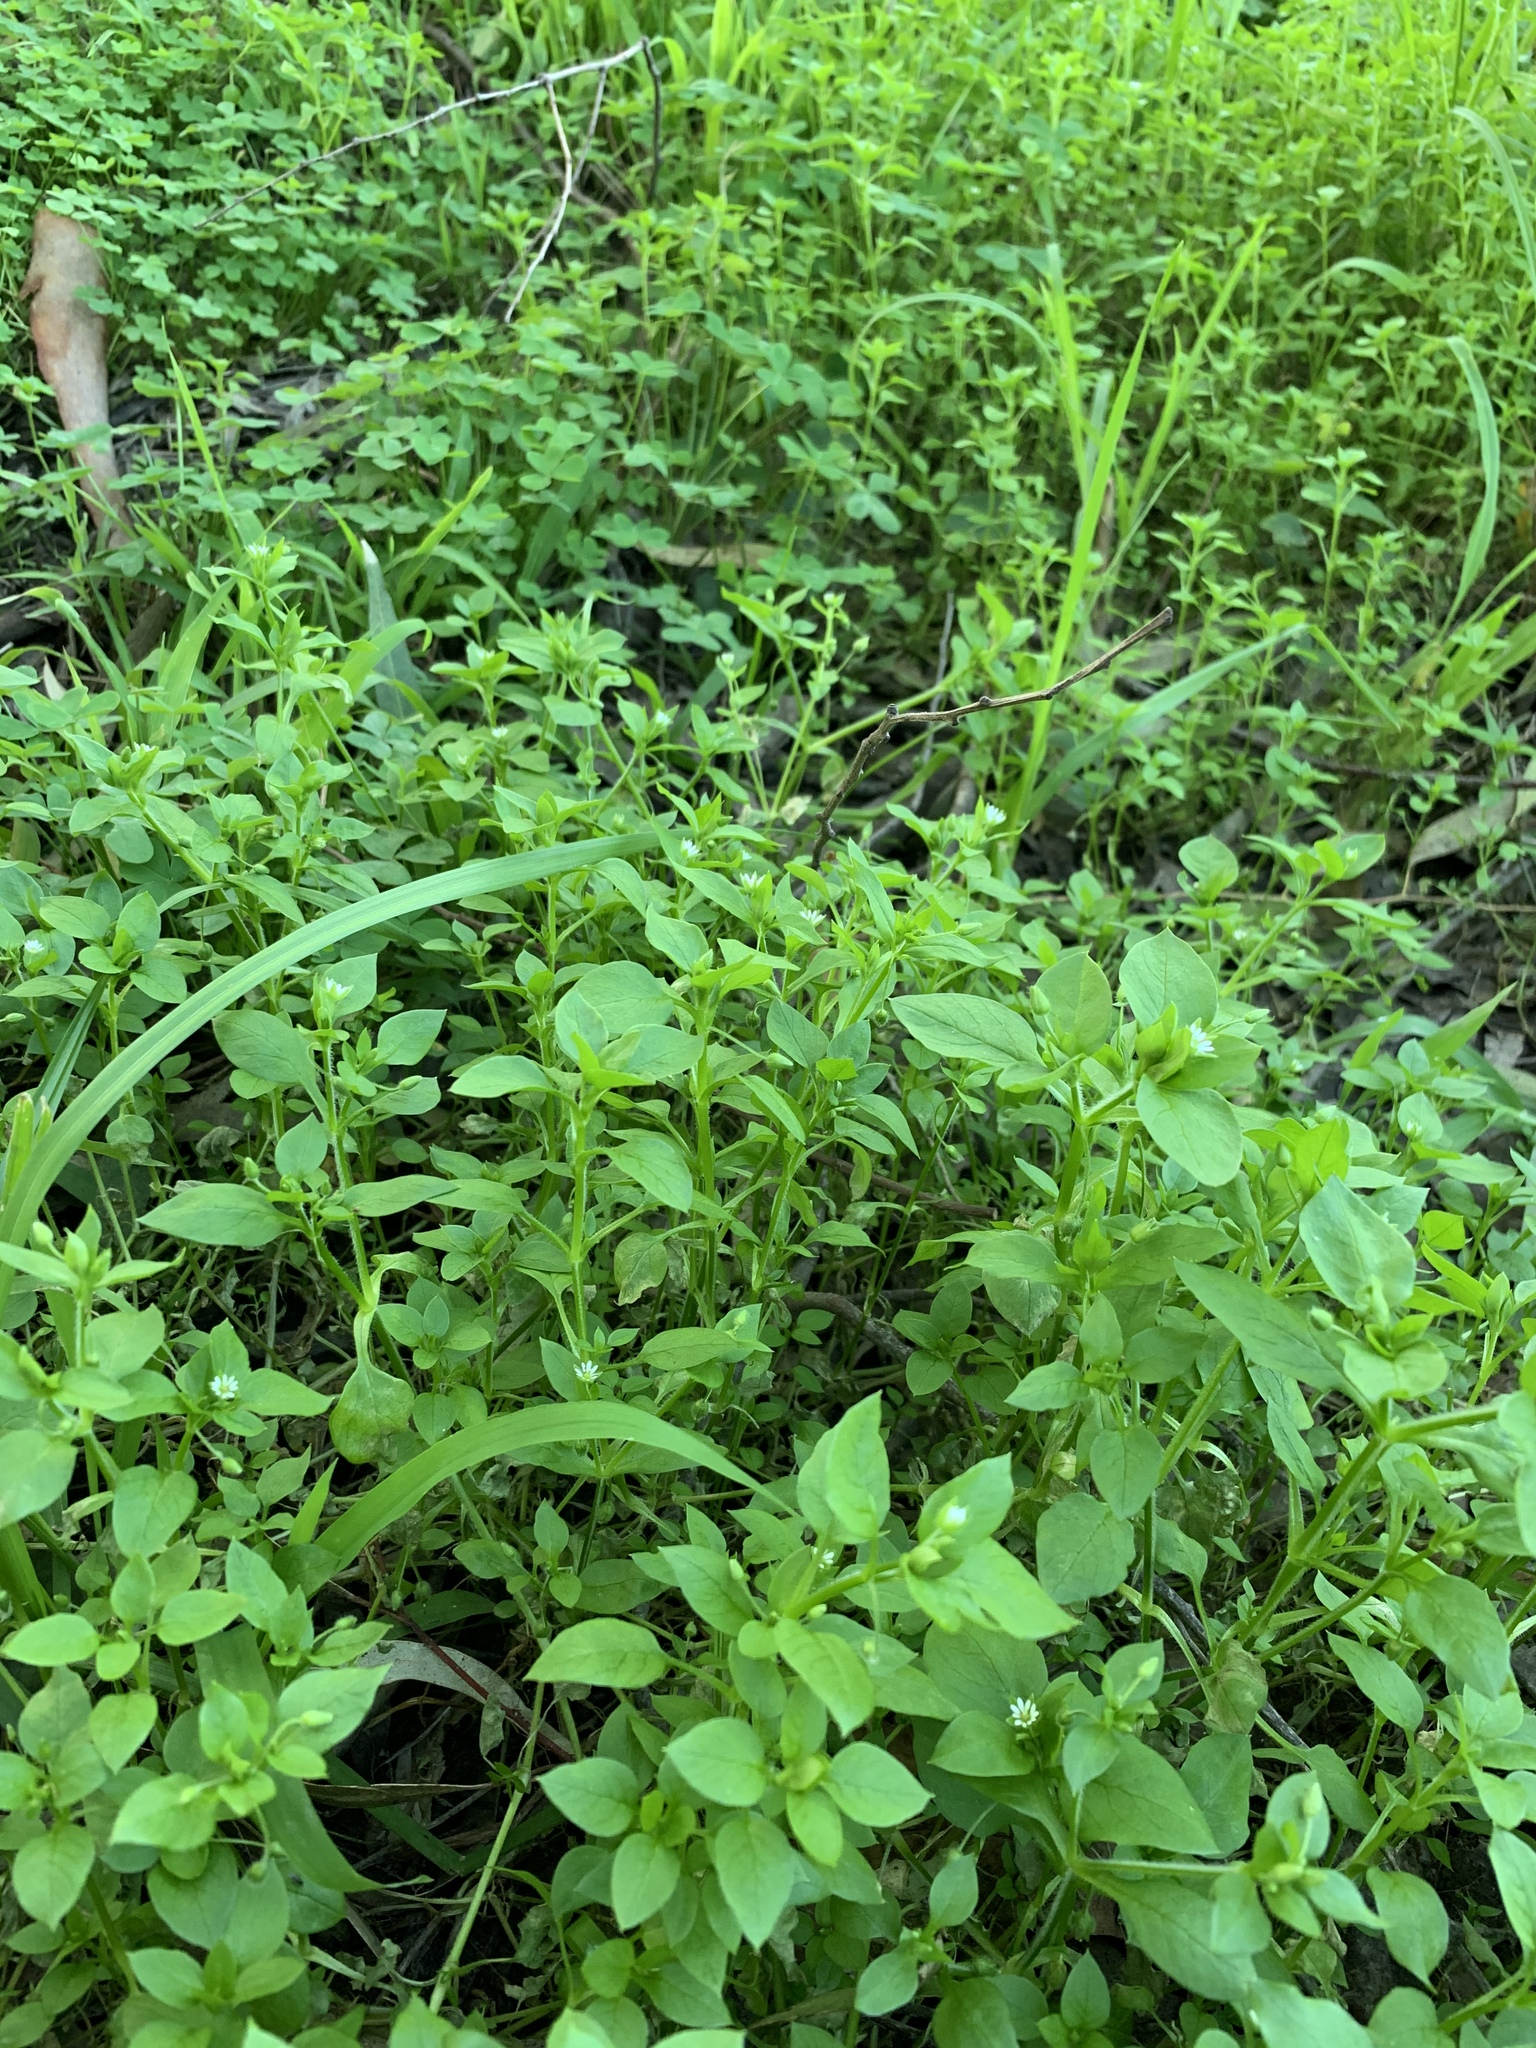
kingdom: Plantae
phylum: Tracheophyta
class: Magnoliopsida
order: Caryophyllales
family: Caryophyllaceae
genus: Stellaria
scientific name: Stellaria media
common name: Common chickweed
